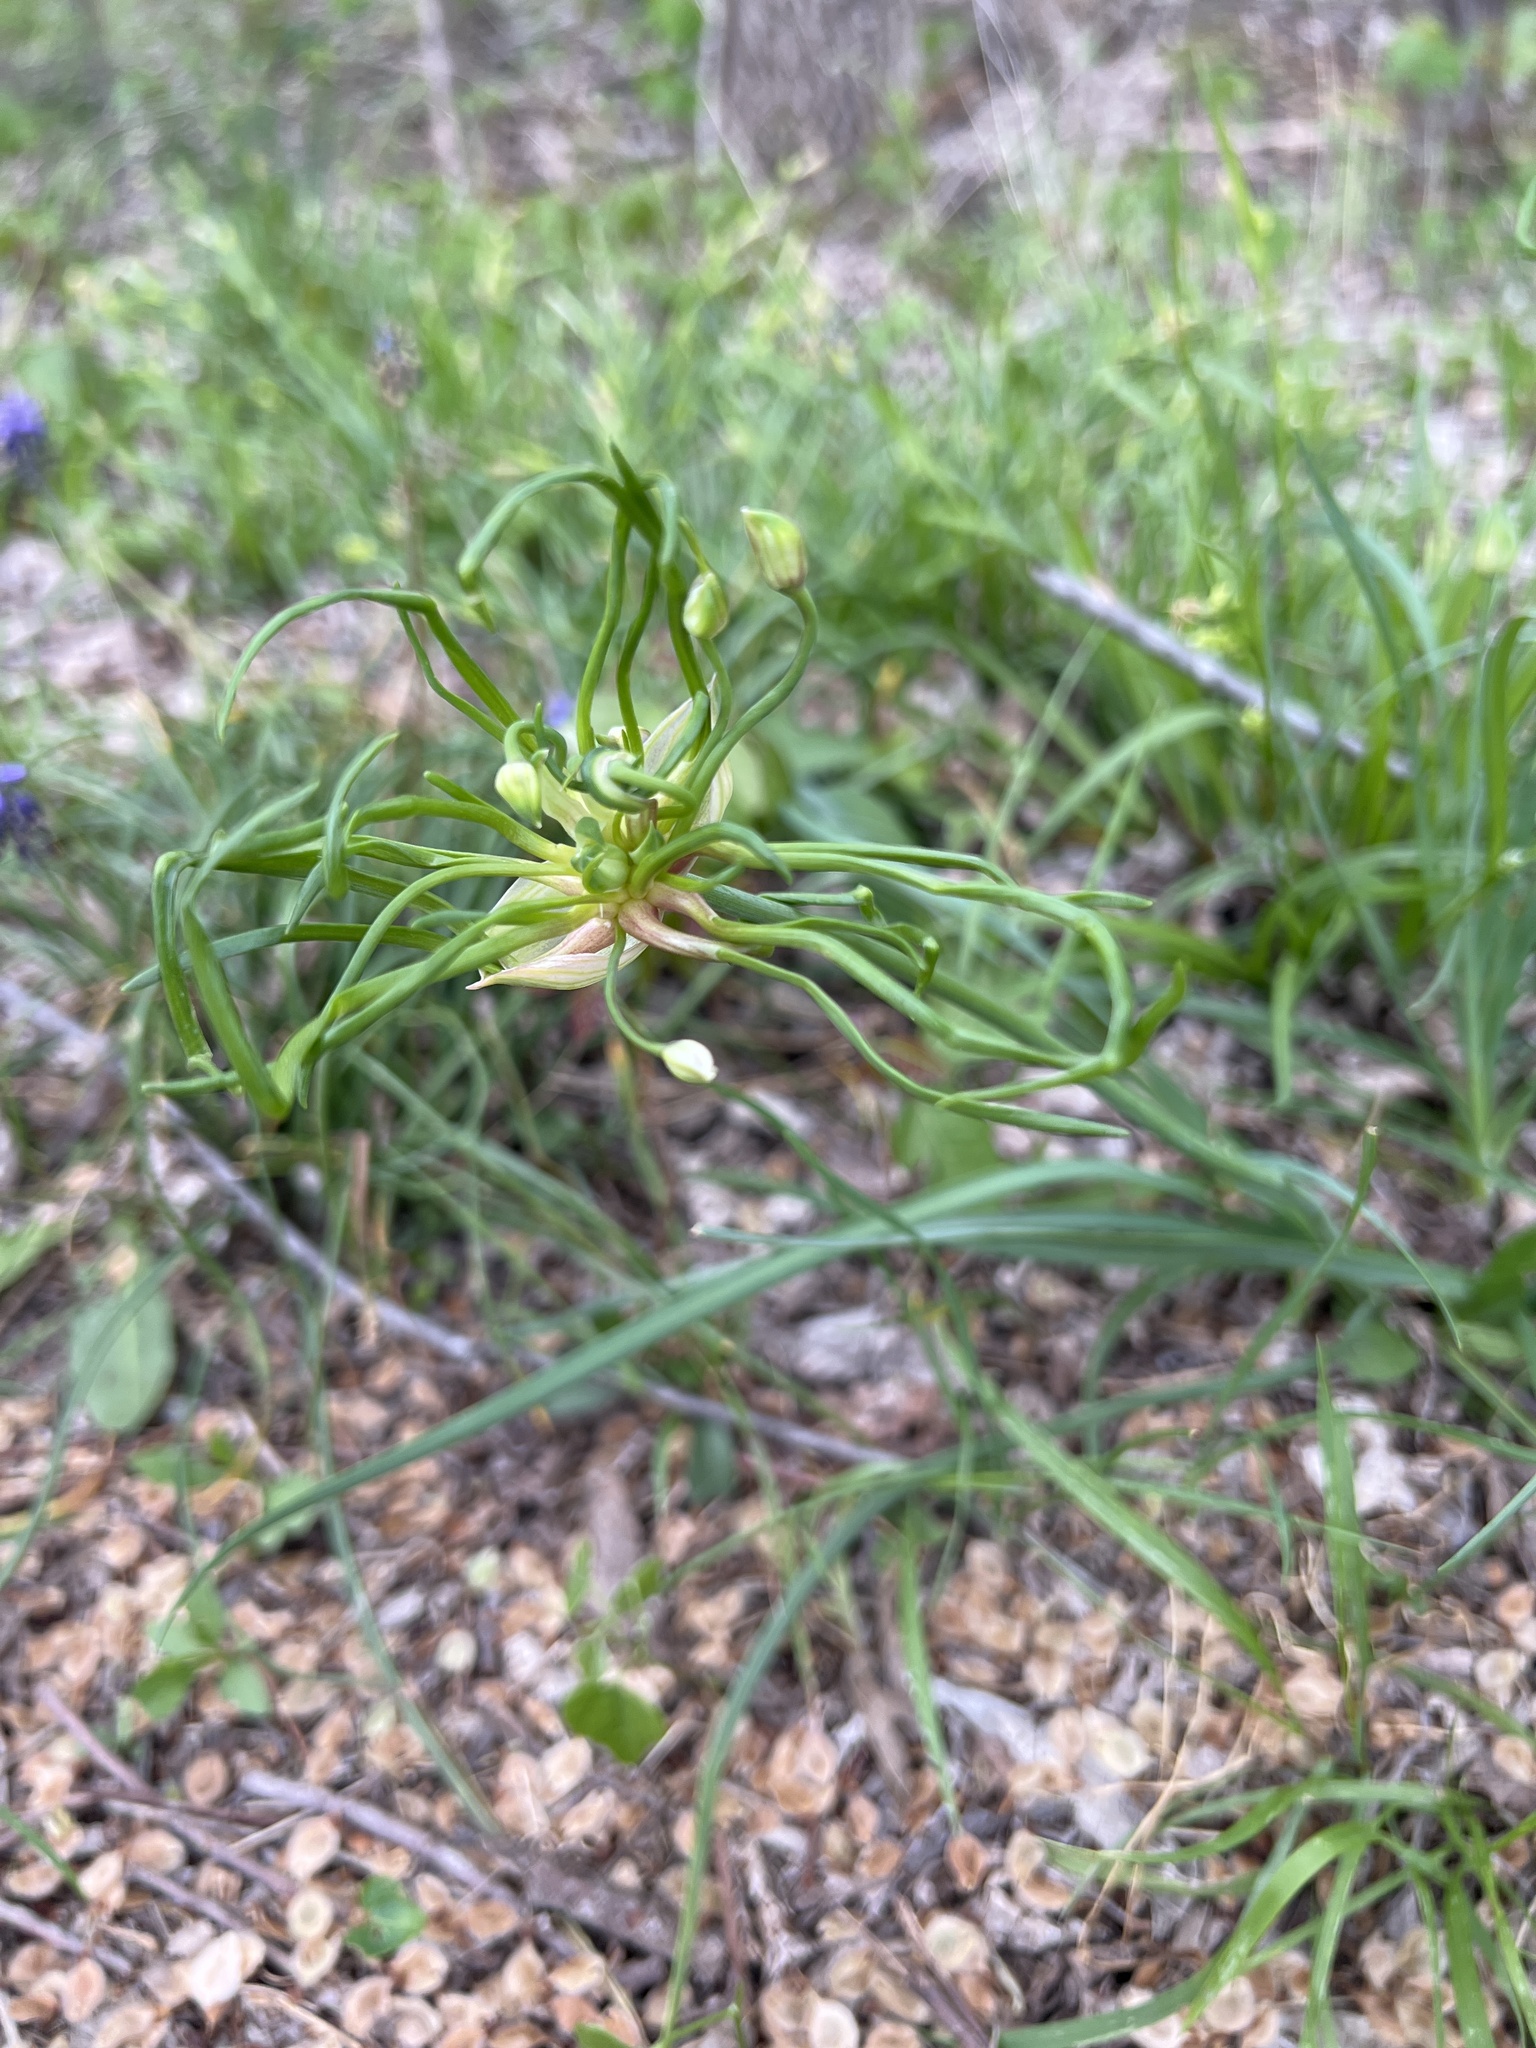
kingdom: Plantae
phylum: Tracheophyta
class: Liliopsida
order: Asparagales
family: Amaryllidaceae
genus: Allium
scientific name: Allium canadense
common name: Meadow garlic
